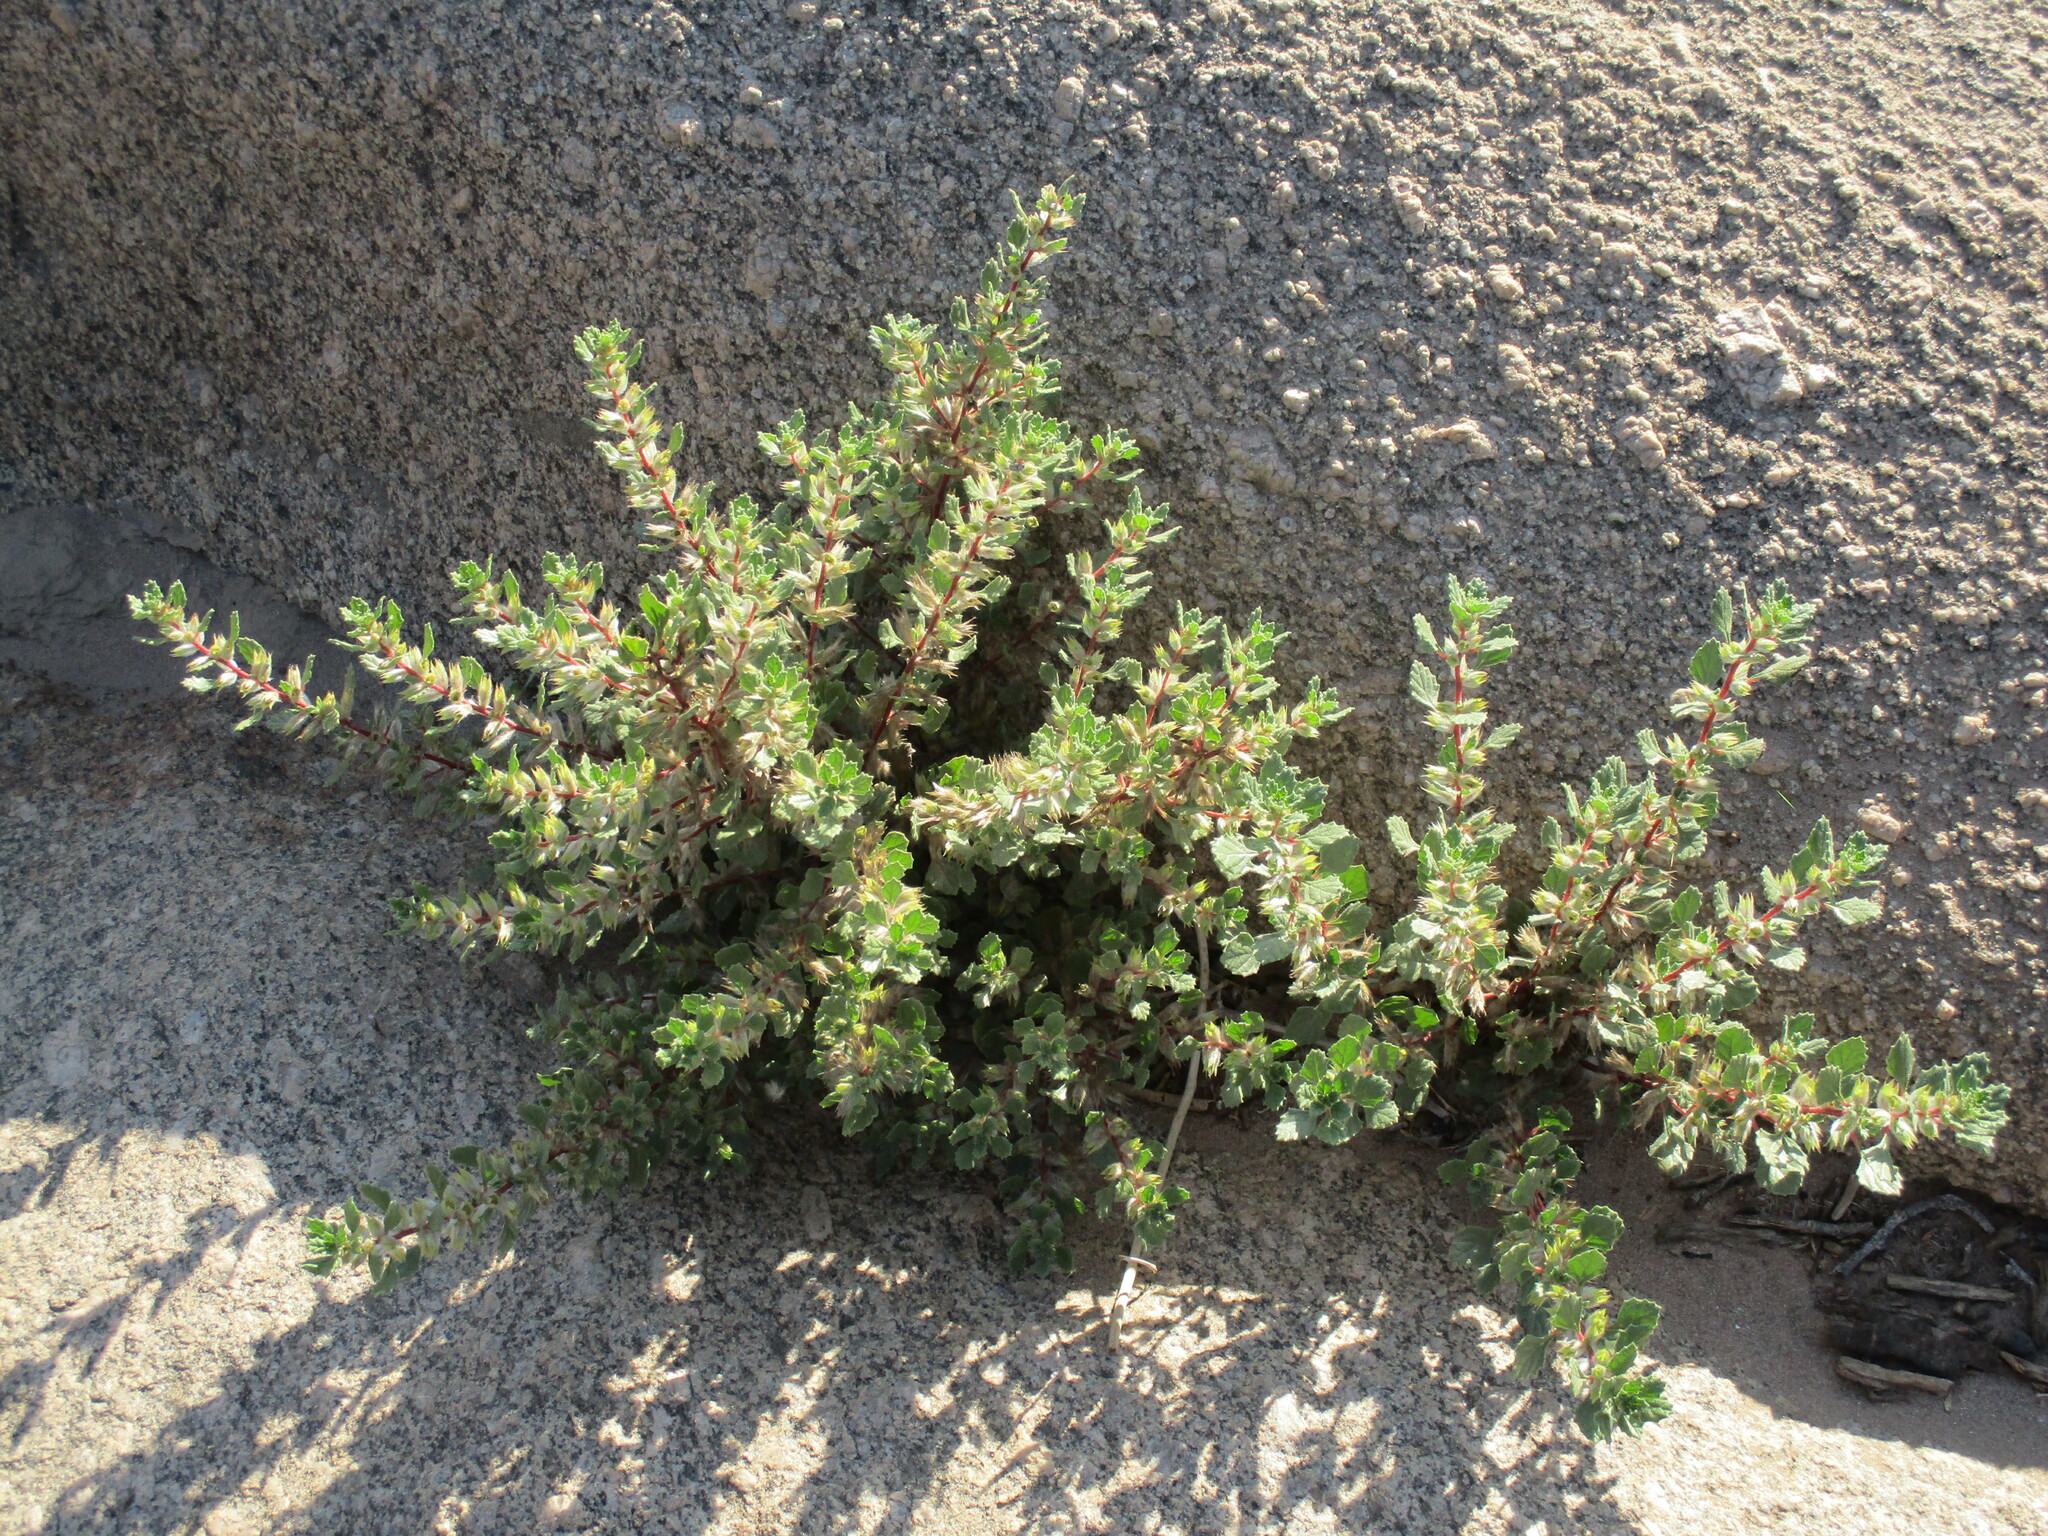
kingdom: Plantae
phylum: Tracheophyta
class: Magnoliopsida
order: Rosales
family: Urticaceae
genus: Forsskaolea
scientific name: Forsskaolea candida
